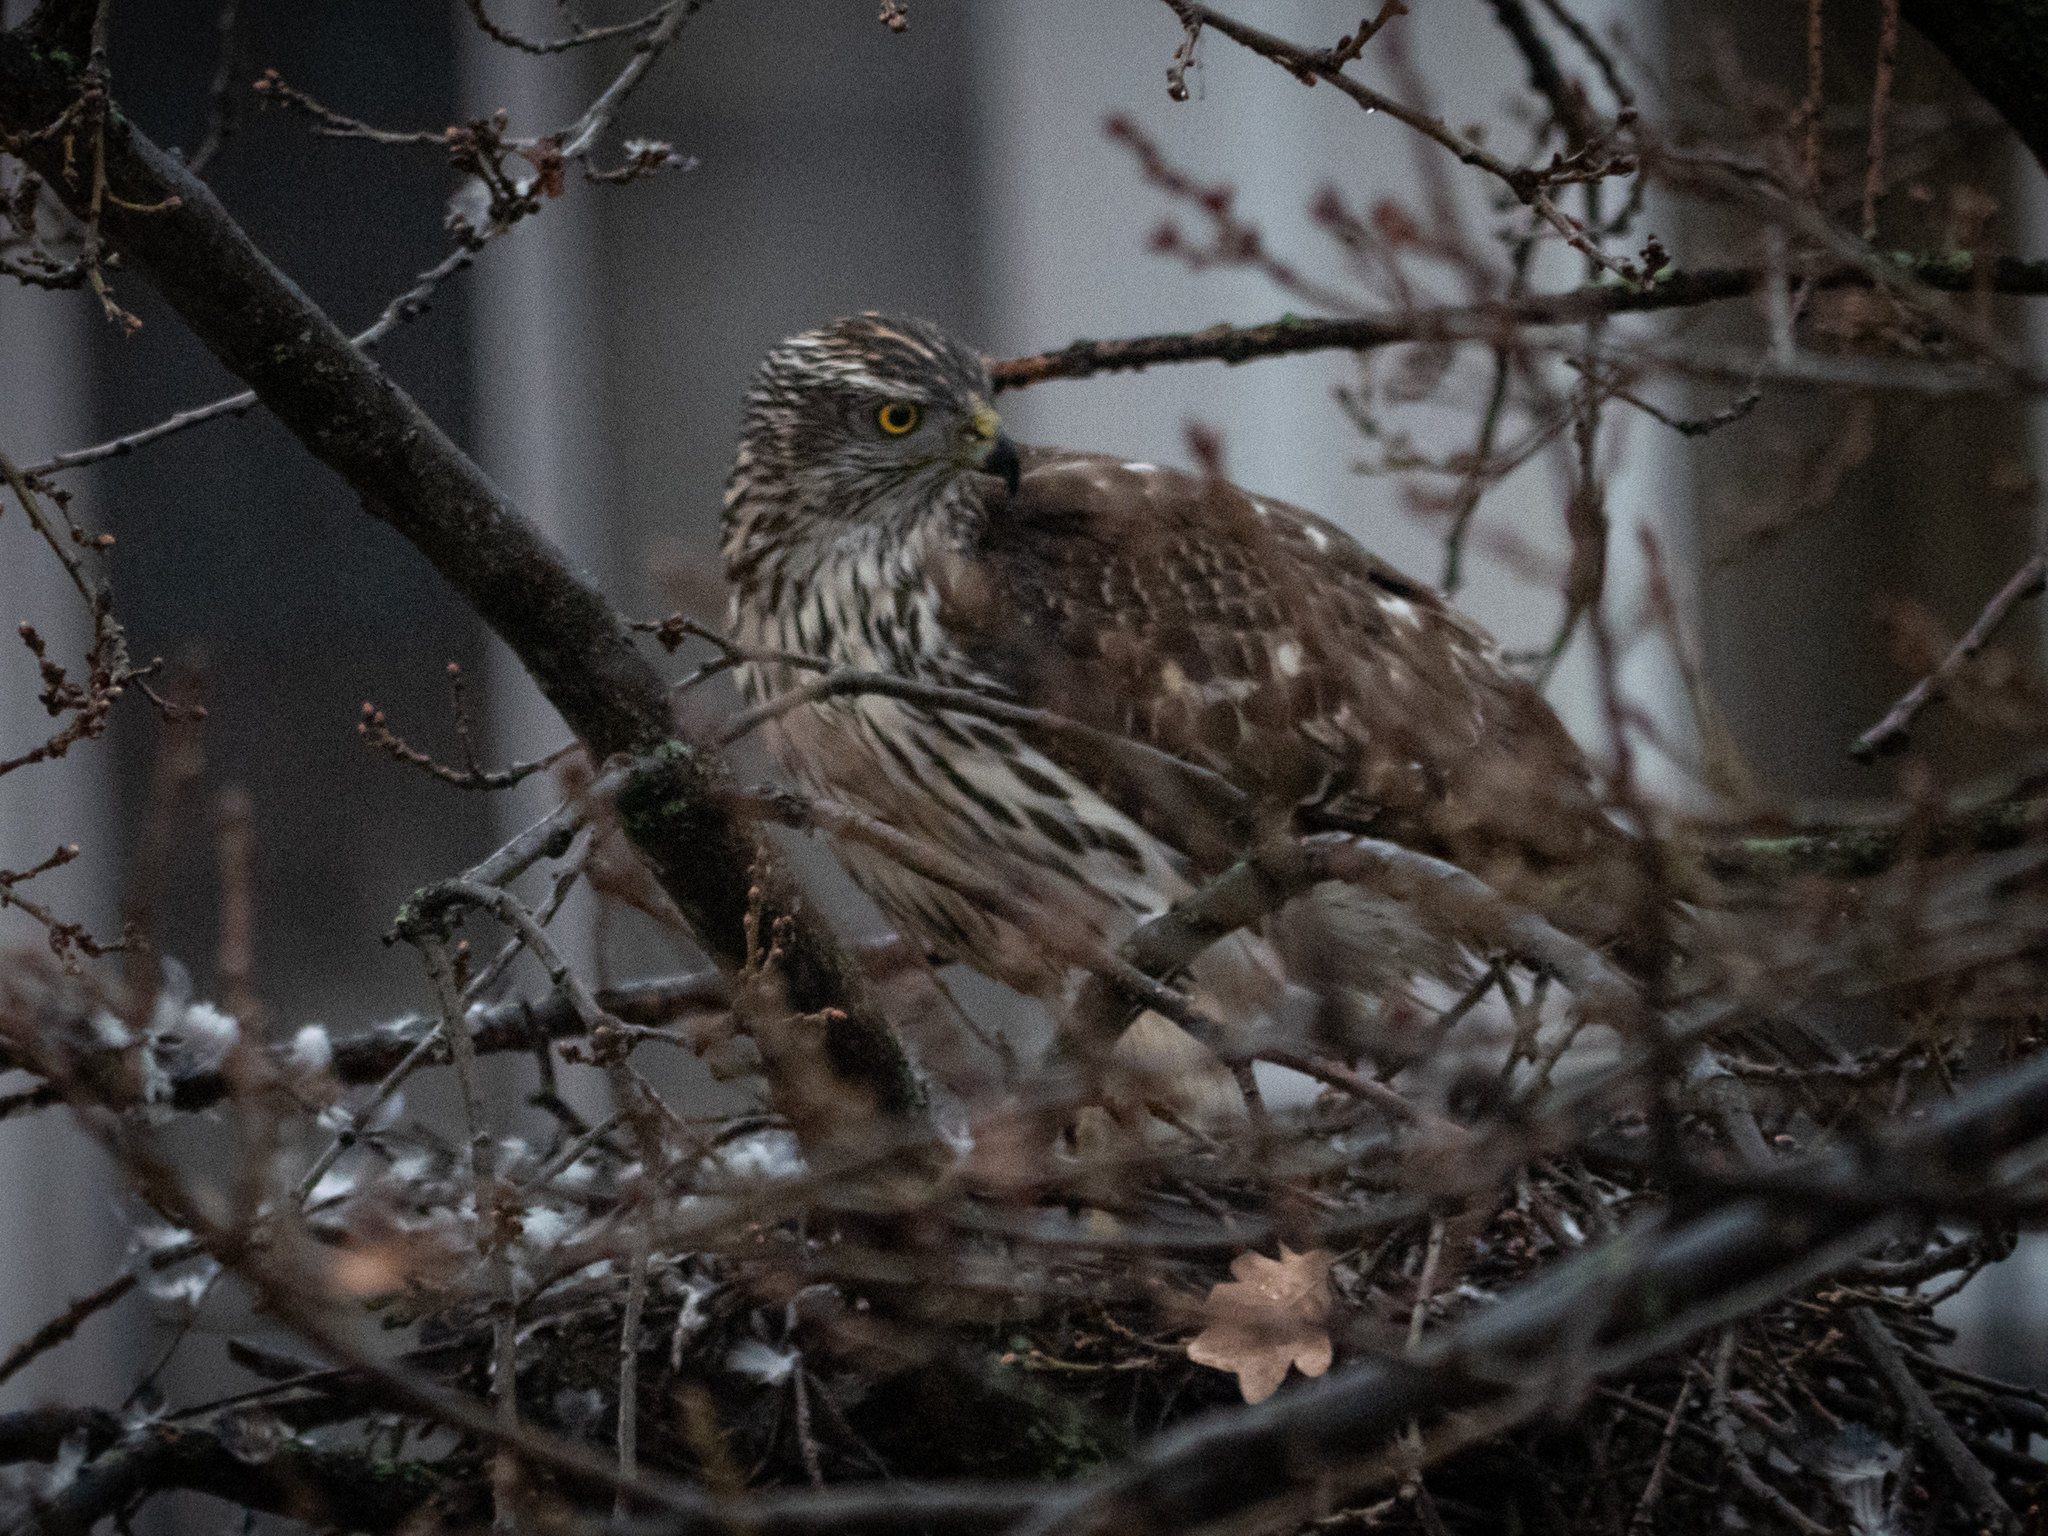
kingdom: Animalia
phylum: Chordata
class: Aves
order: Accipitriformes
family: Accipitridae
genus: Accipiter
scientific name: Accipiter gentilis
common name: Northern goshawk
